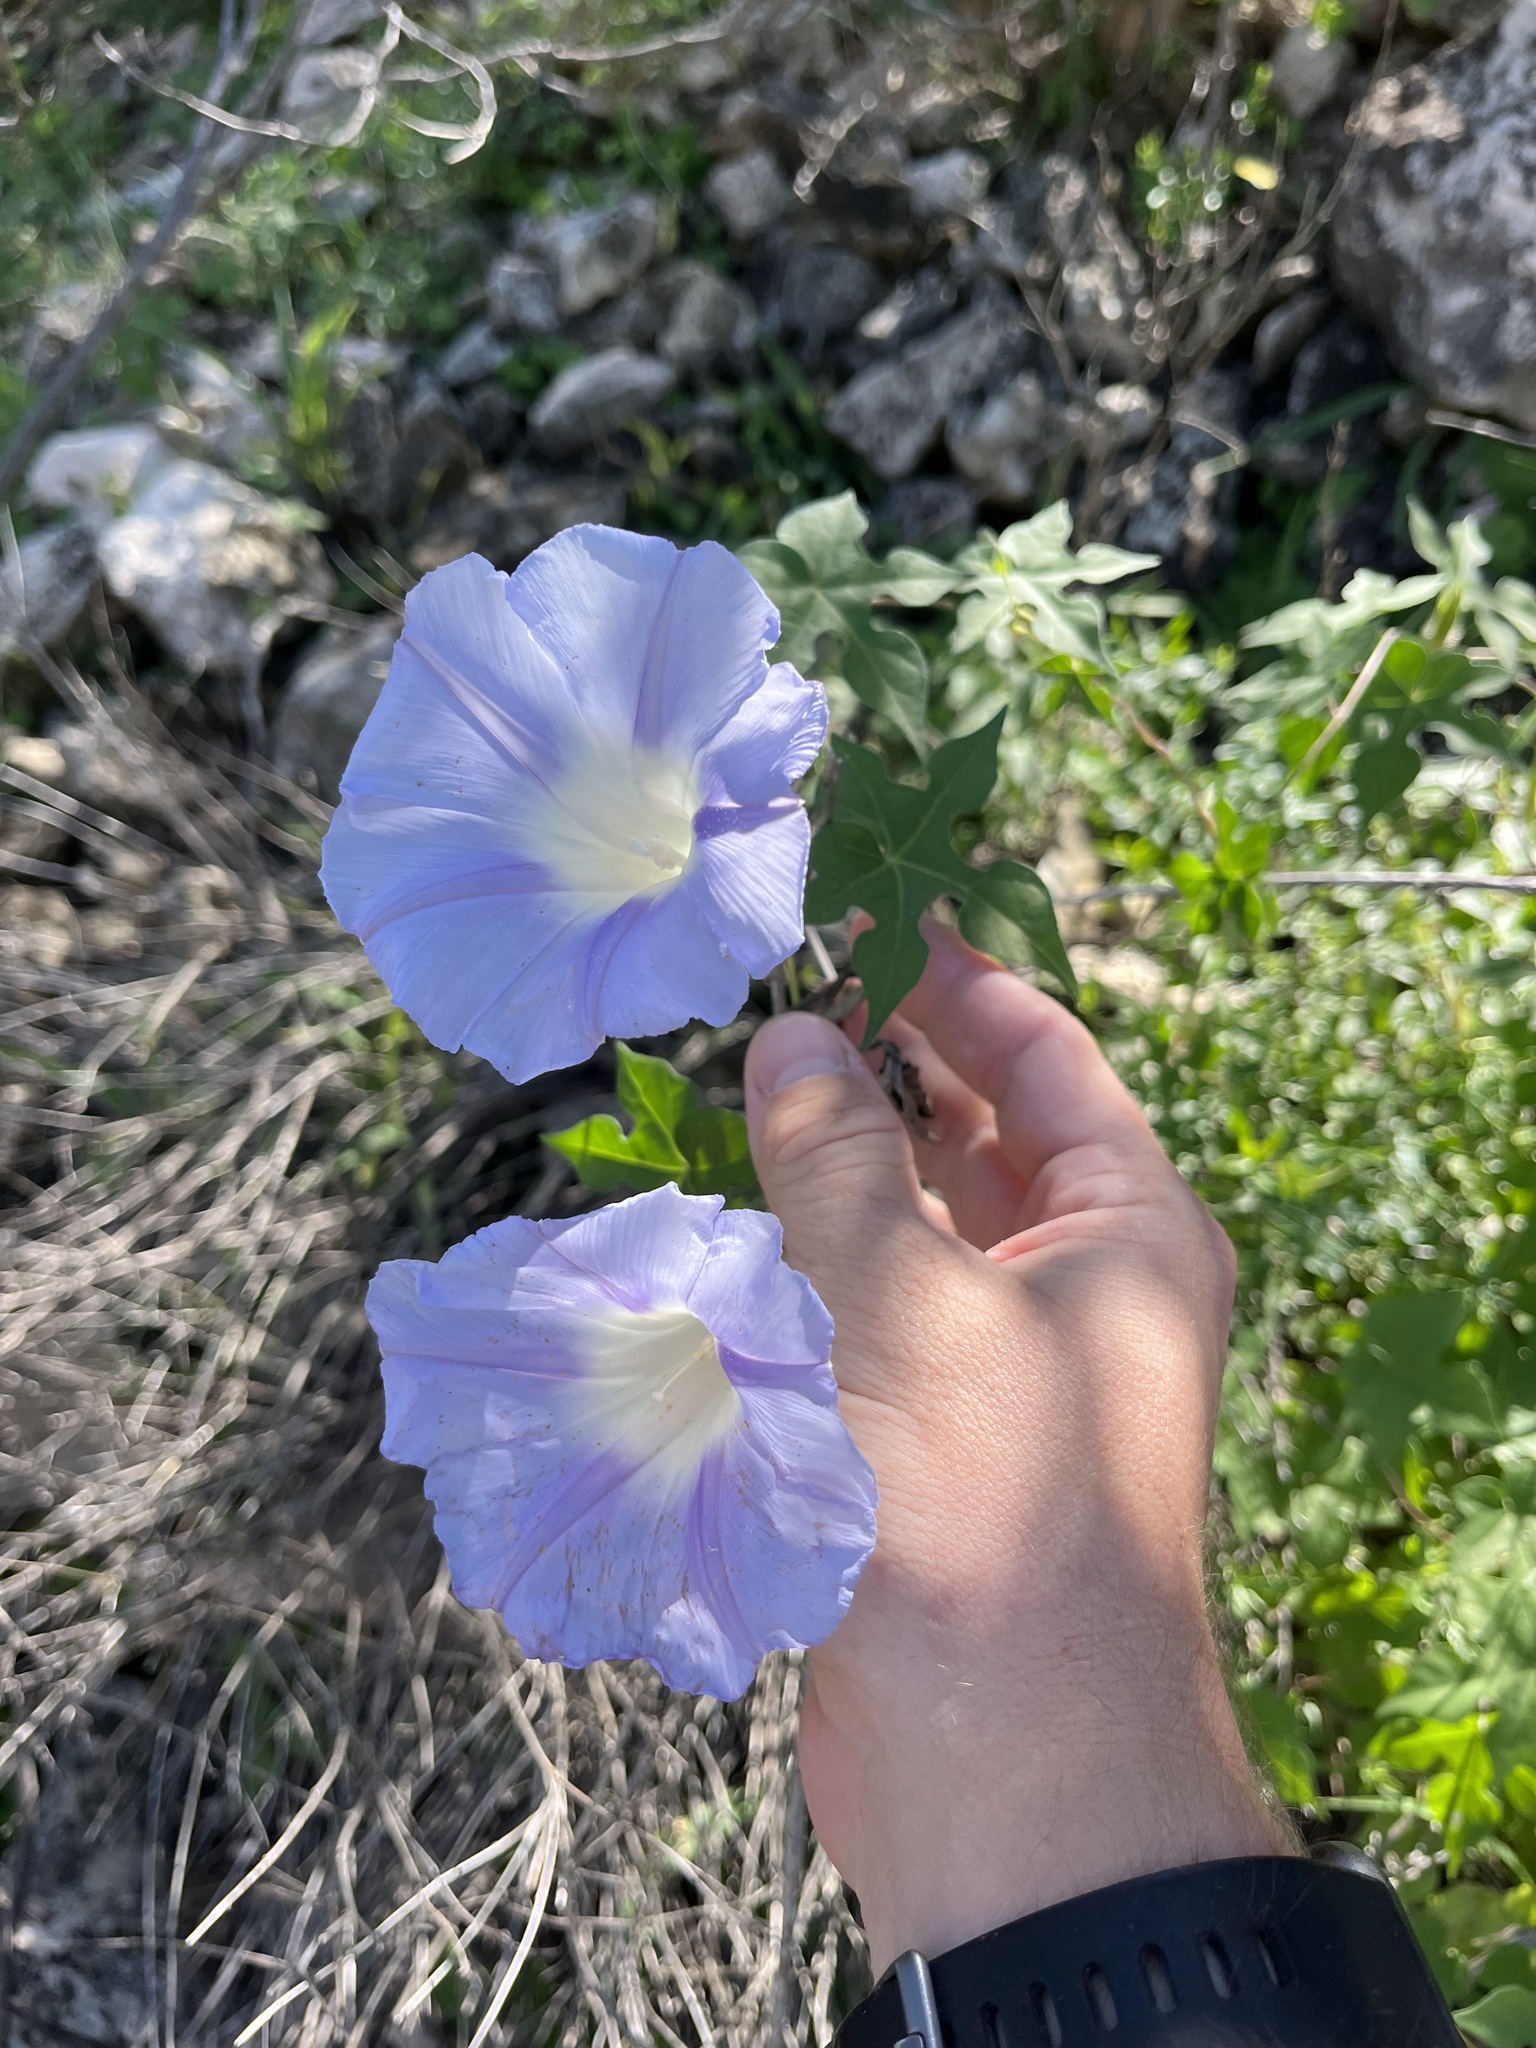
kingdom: Plantae
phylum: Tracheophyta
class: Magnoliopsida
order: Solanales
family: Convolvulaceae
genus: Ipomoea
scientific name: Ipomoea lindheimeri
